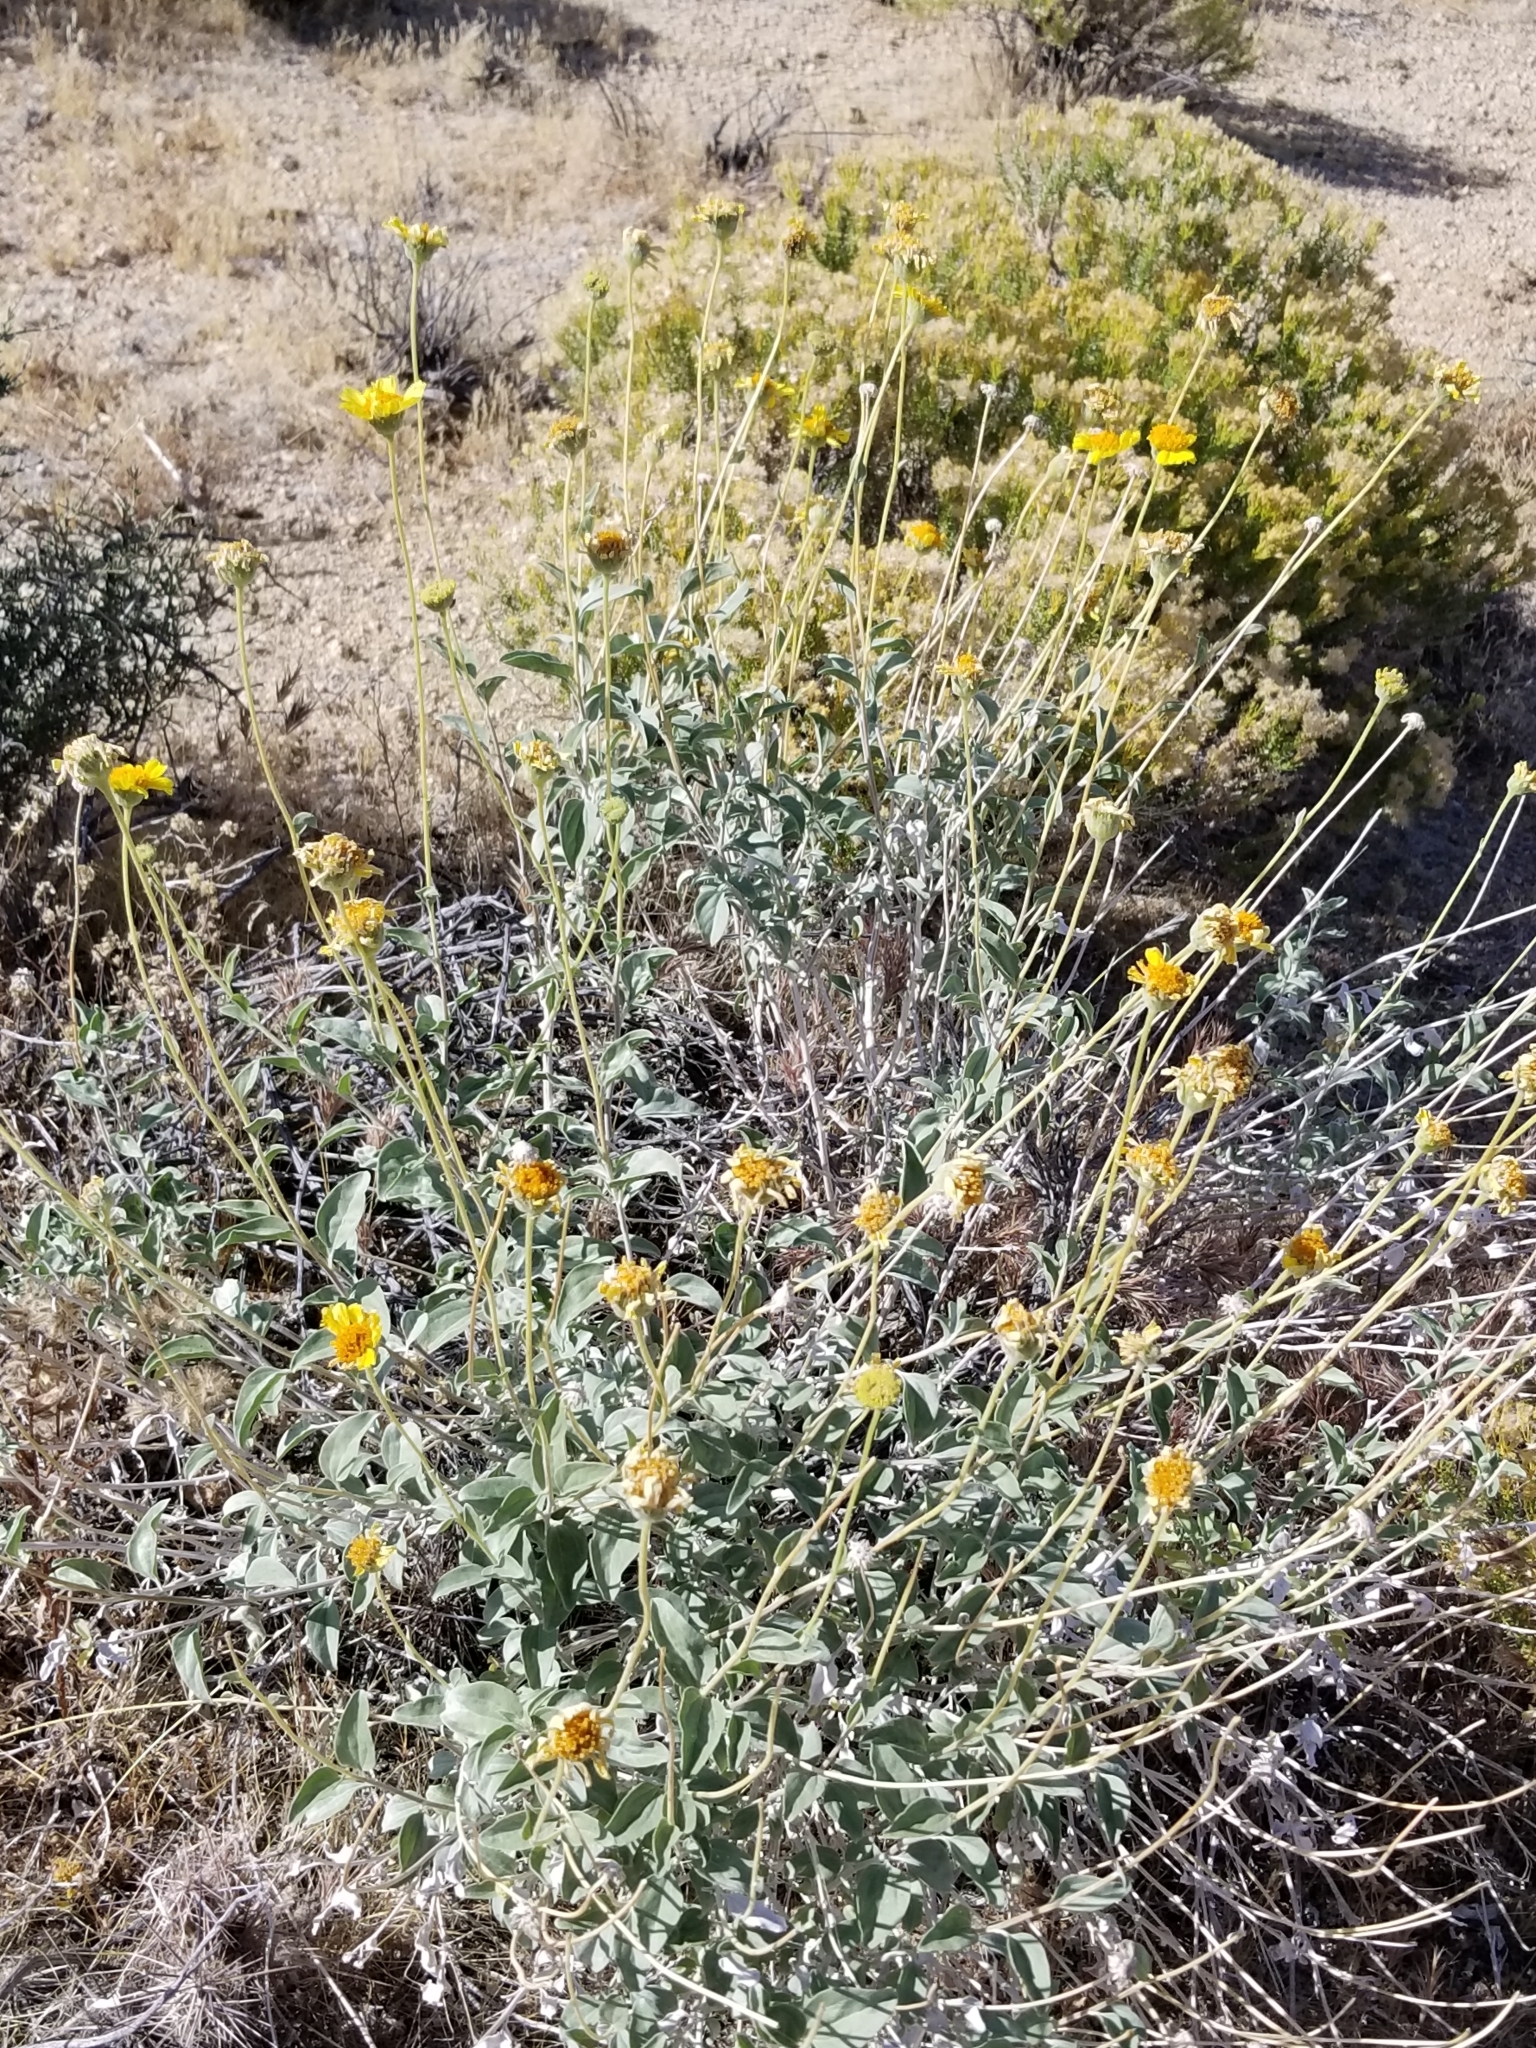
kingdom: Plantae
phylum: Tracheophyta
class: Magnoliopsida
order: Asterales
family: Asteraceae
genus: Encelia
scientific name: Encelia actoni
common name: Acton encelia
